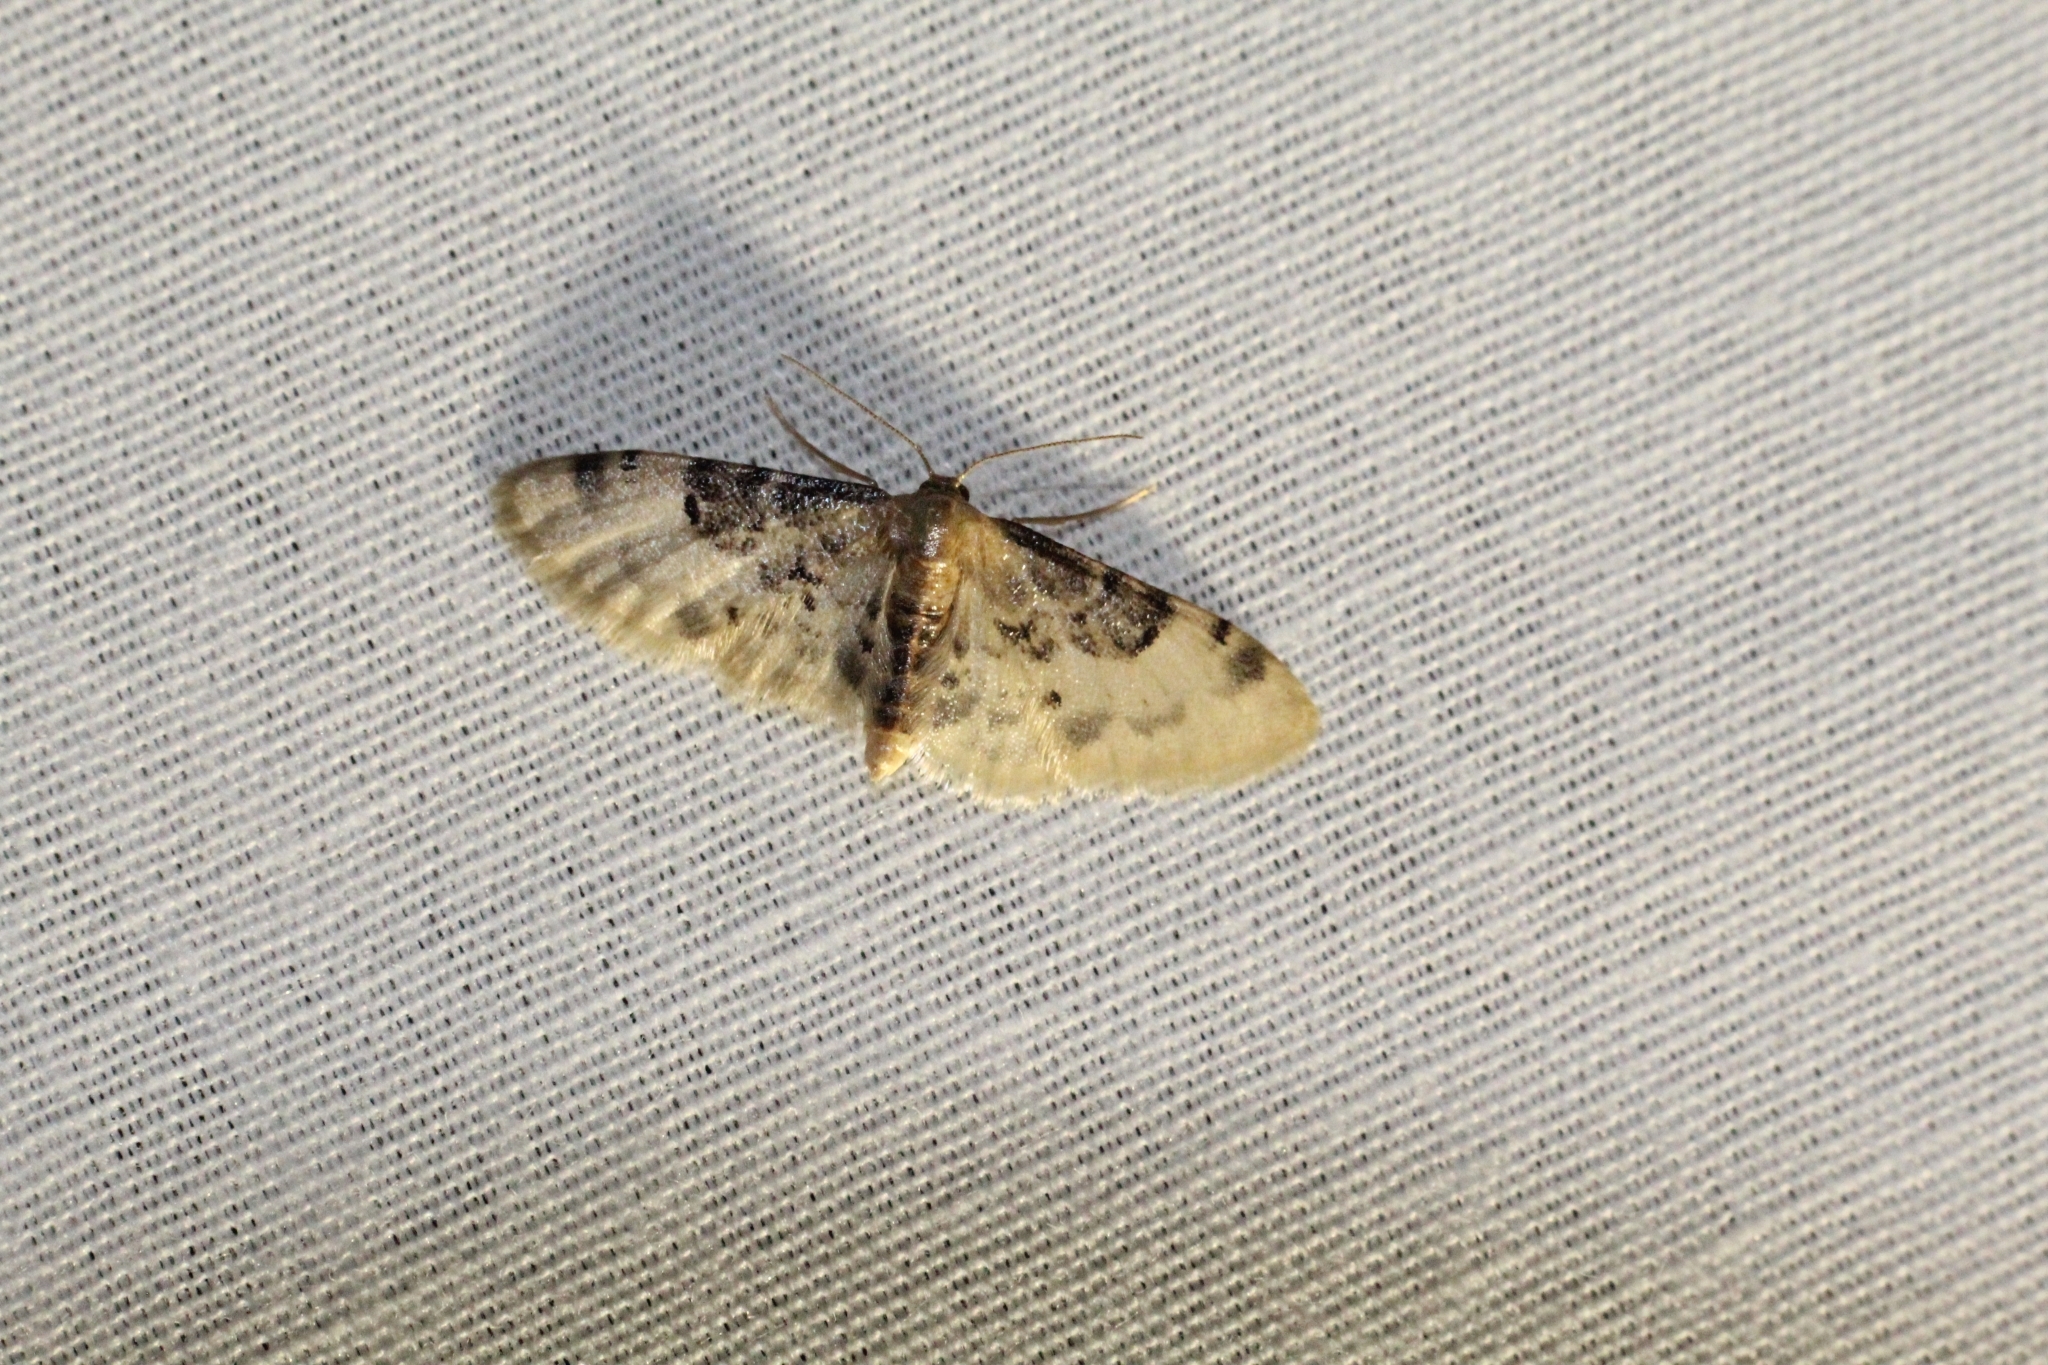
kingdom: Animalia
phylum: Arthropoda
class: Insecta
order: Lepidoptera
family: Geometridae
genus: Idaea
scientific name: Idaea filicata
